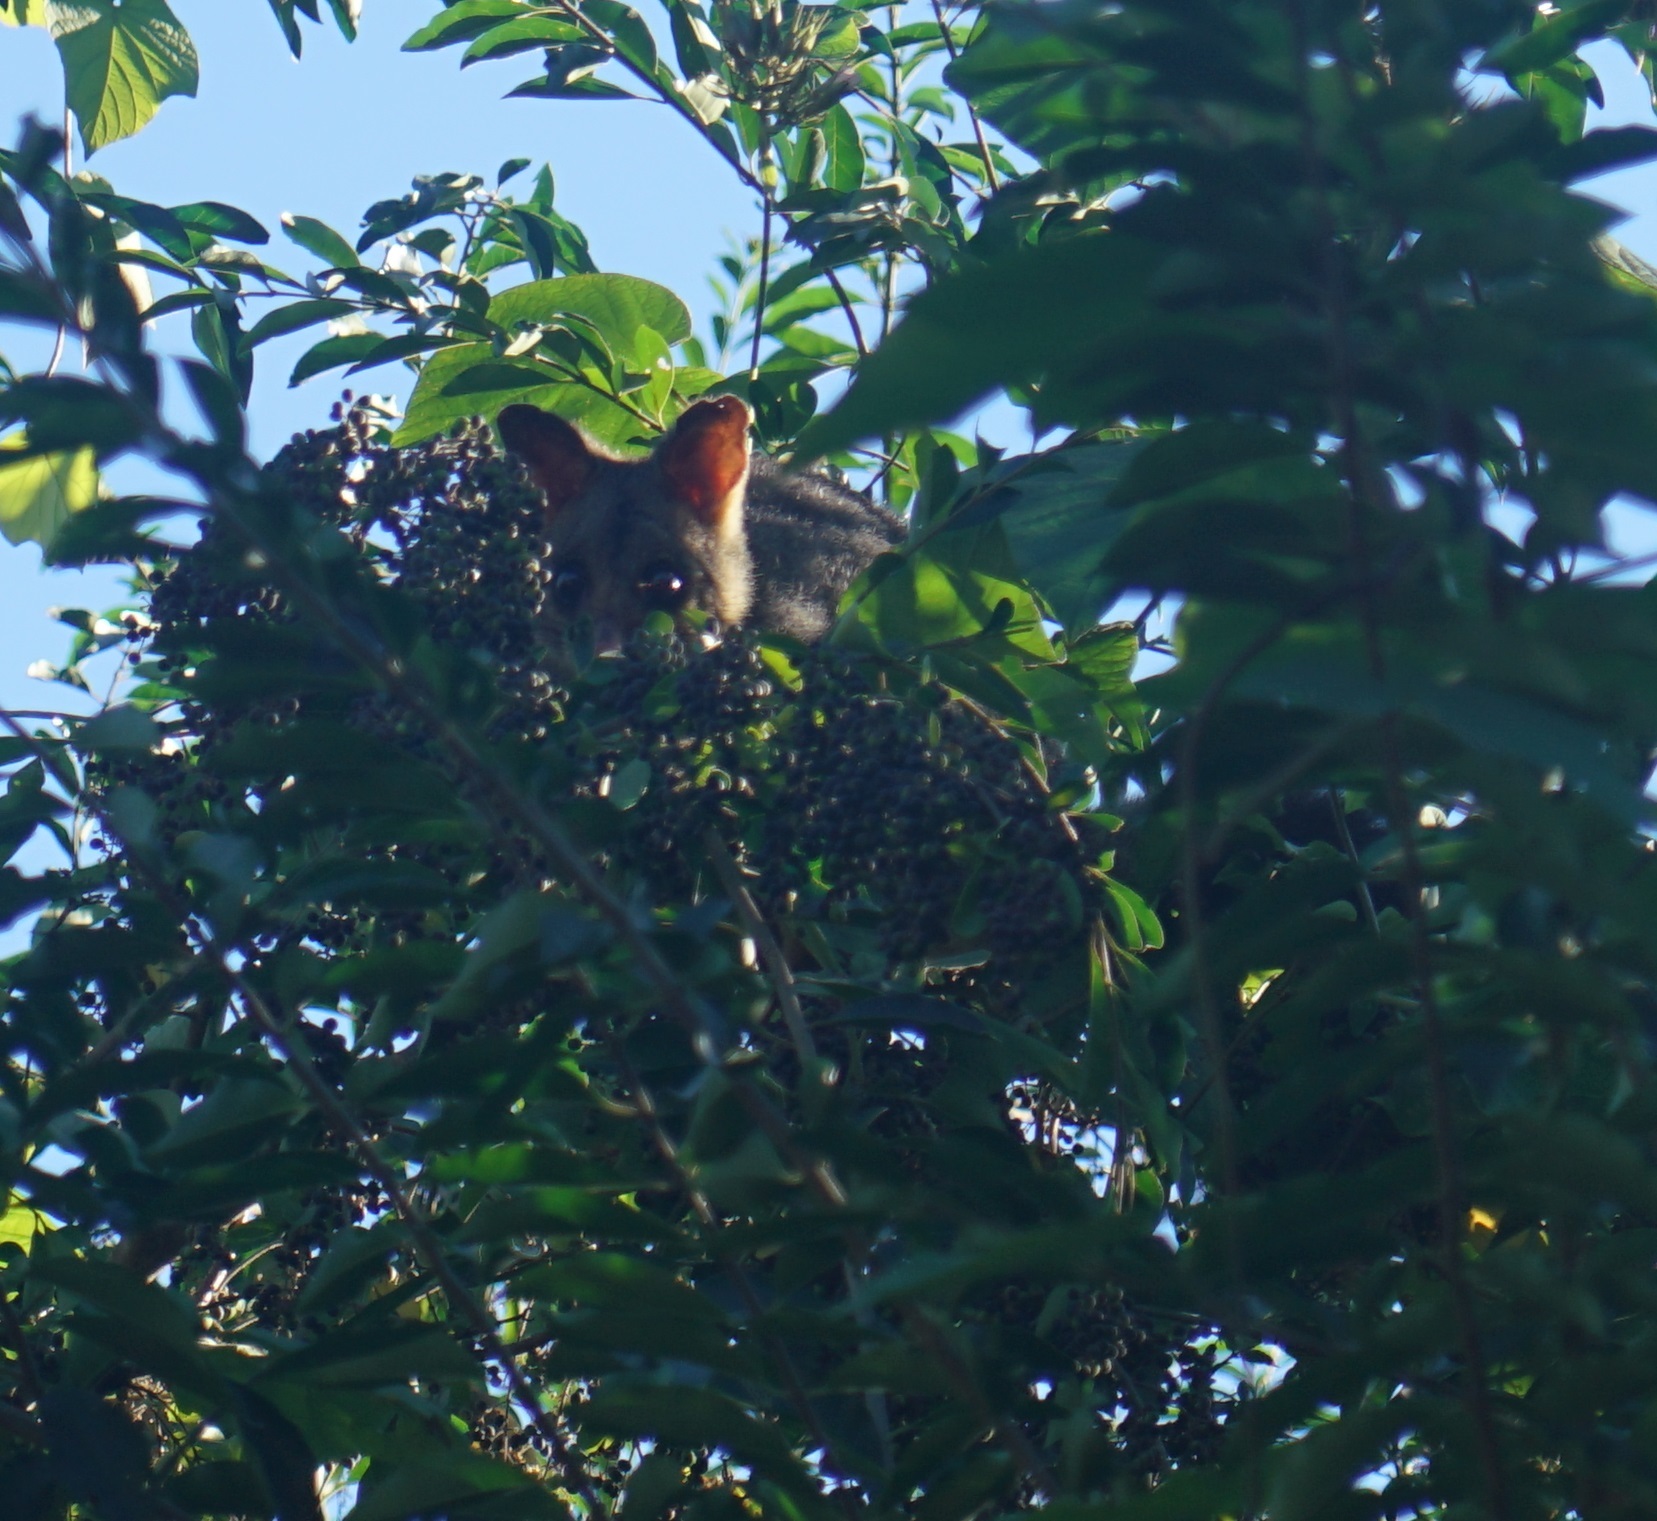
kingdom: Animalia
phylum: Chordata
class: Mammalia
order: Diprotodontia
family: Phalangeridae
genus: Trichosurus
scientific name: Trichosurus vulpecula
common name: Common brushtail
